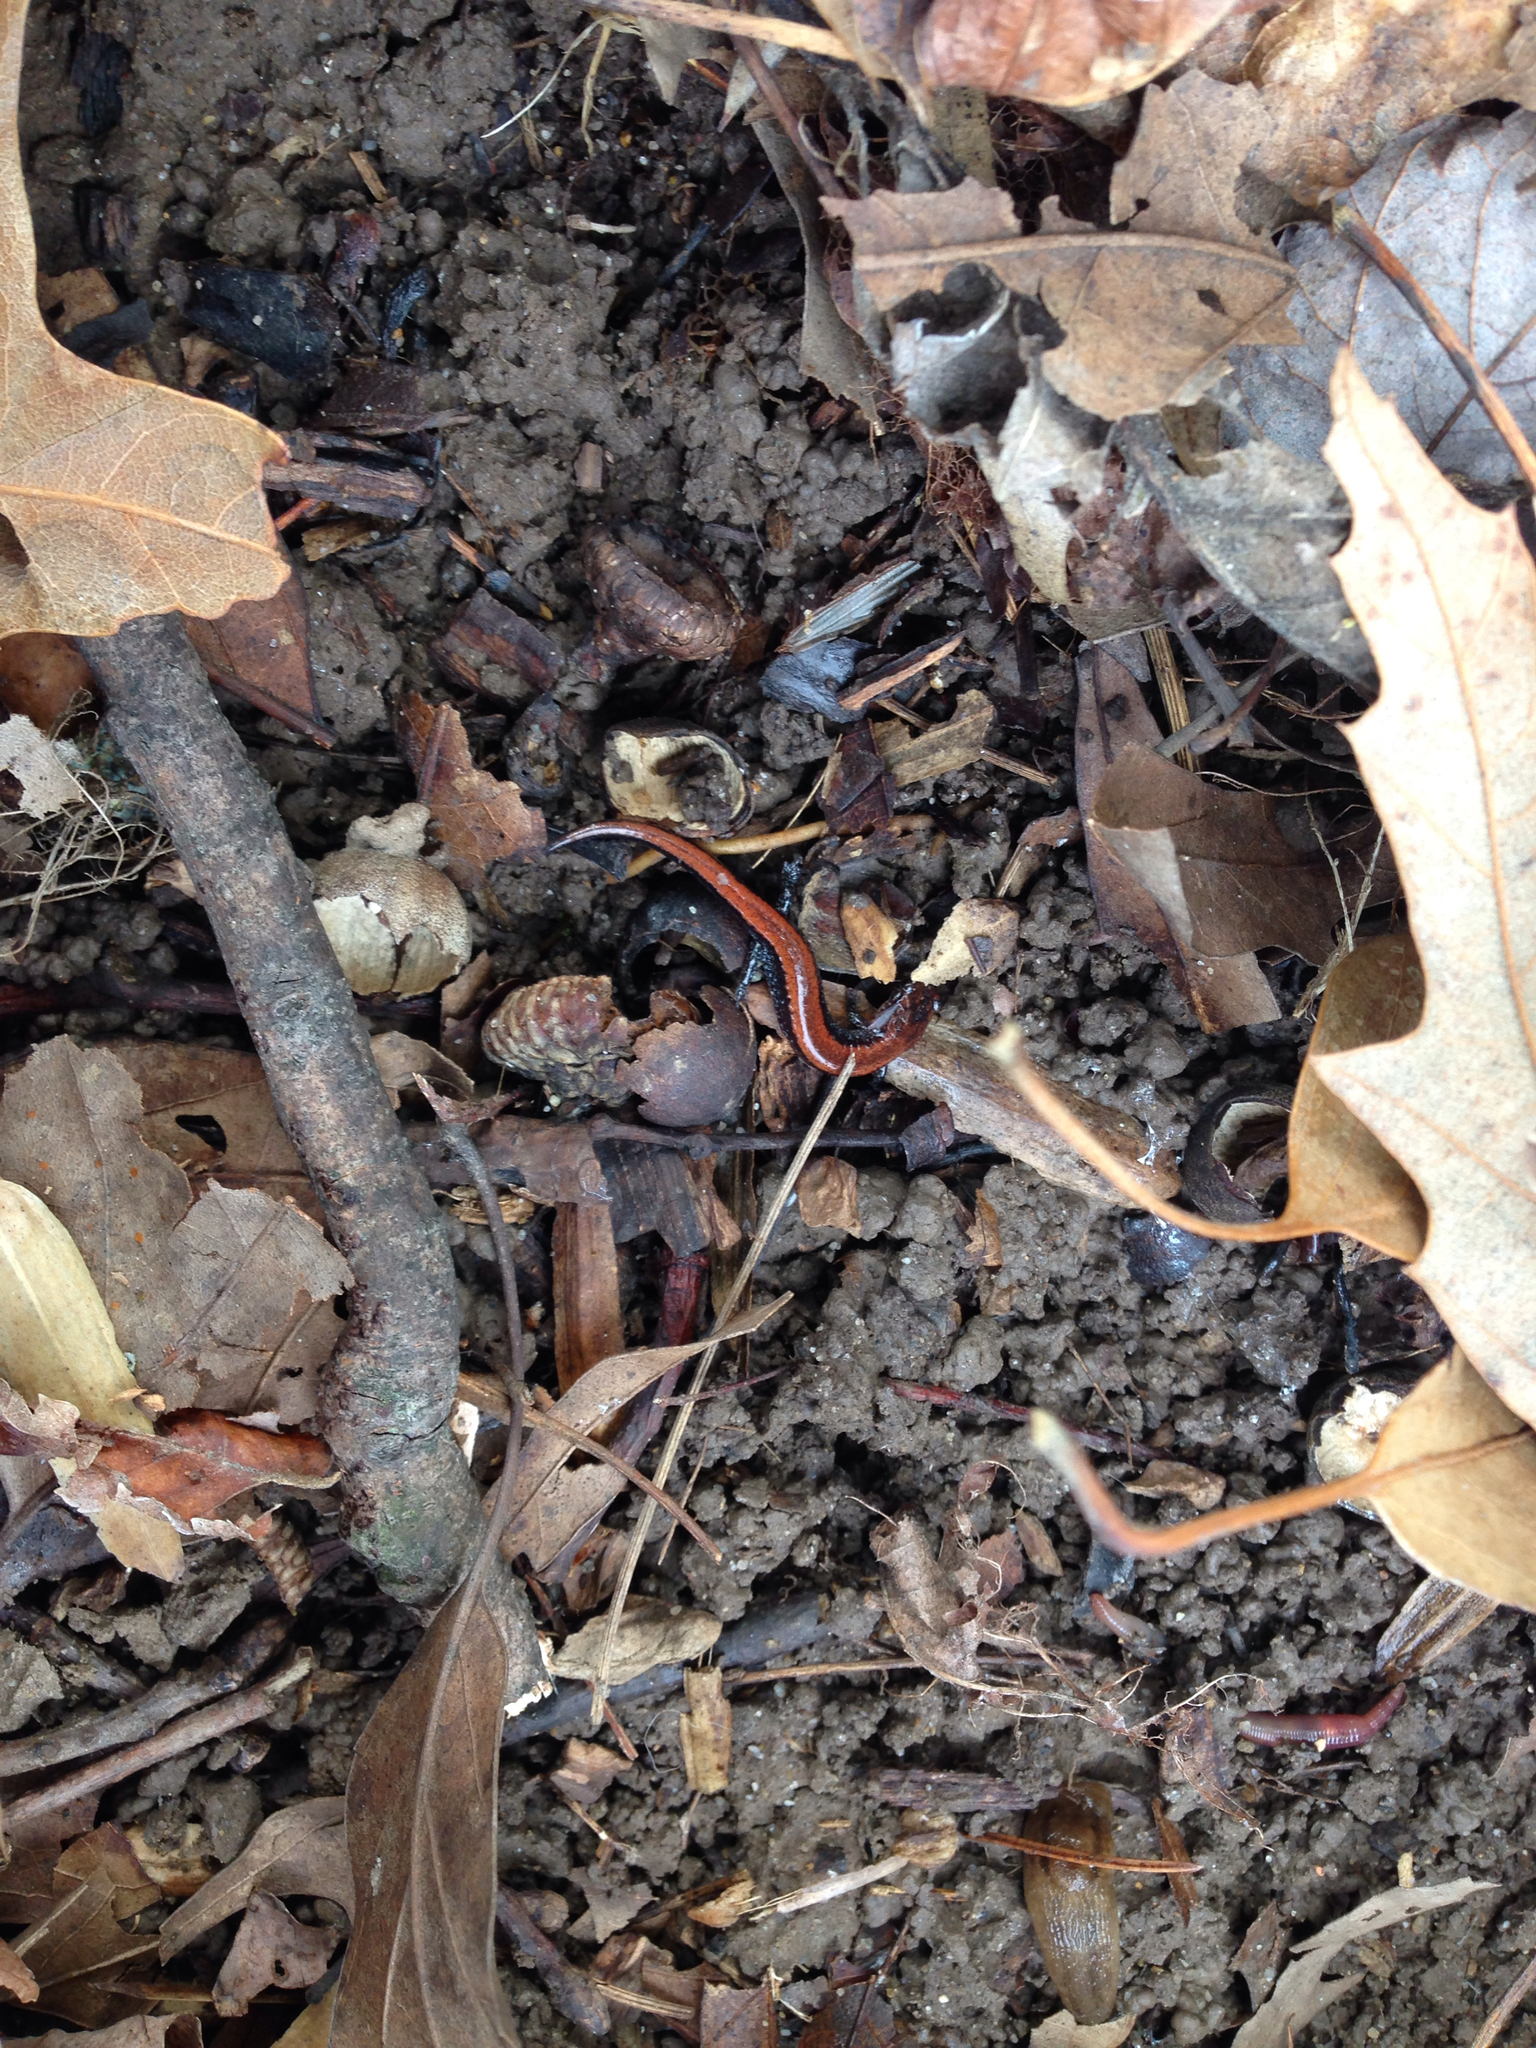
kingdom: Animalia
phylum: Chordata
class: Amphibia
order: Caudata
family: Plethodontidae
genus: Plethodon
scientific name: Plethodon cinereus
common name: Redback salamander
